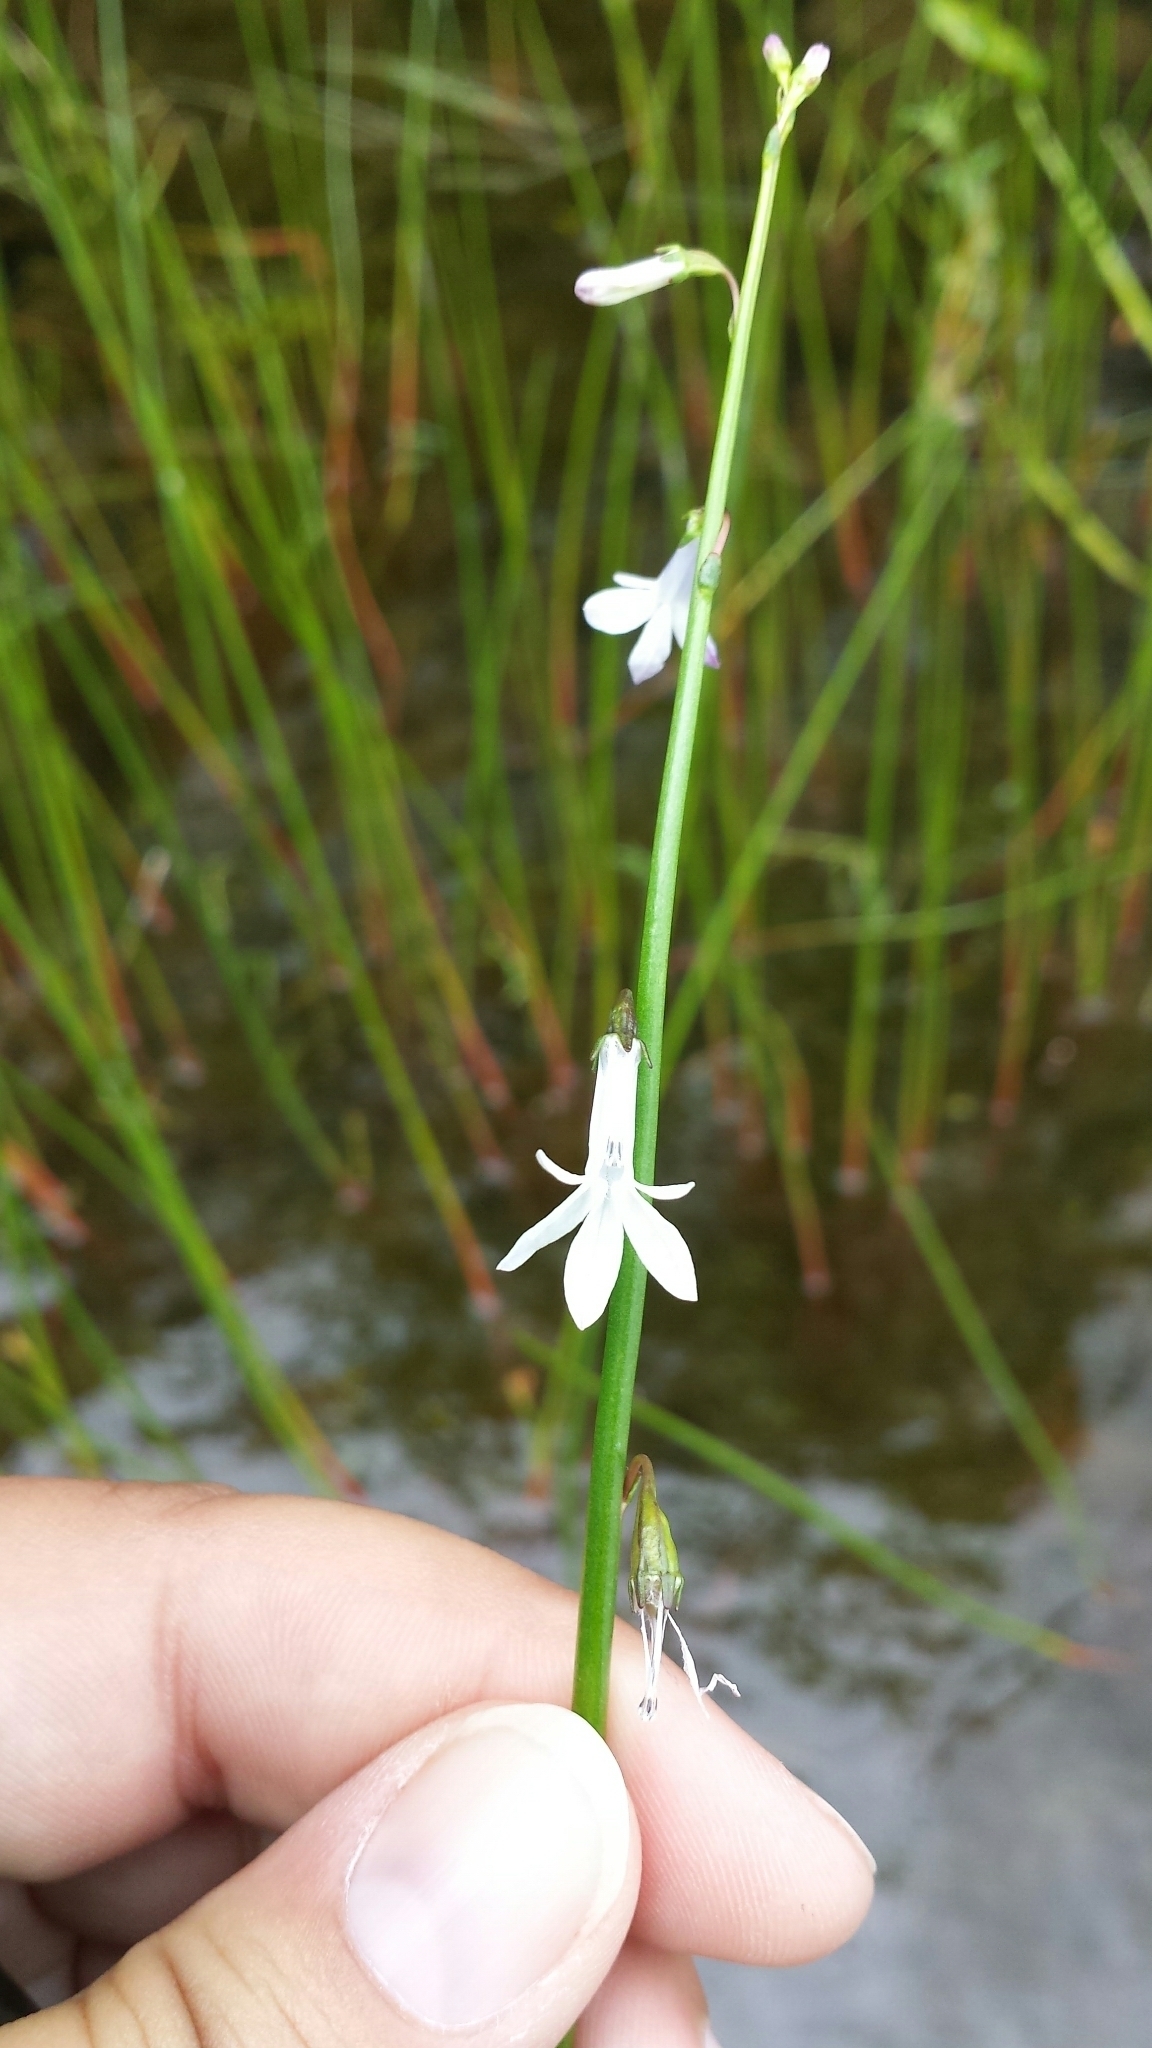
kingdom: Plantae
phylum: Tracheophyta
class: Magnoliopsida
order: Asterales
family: Campanulaceae
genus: Lobelia
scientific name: Lobelia dortmanna
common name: Water lobelia
